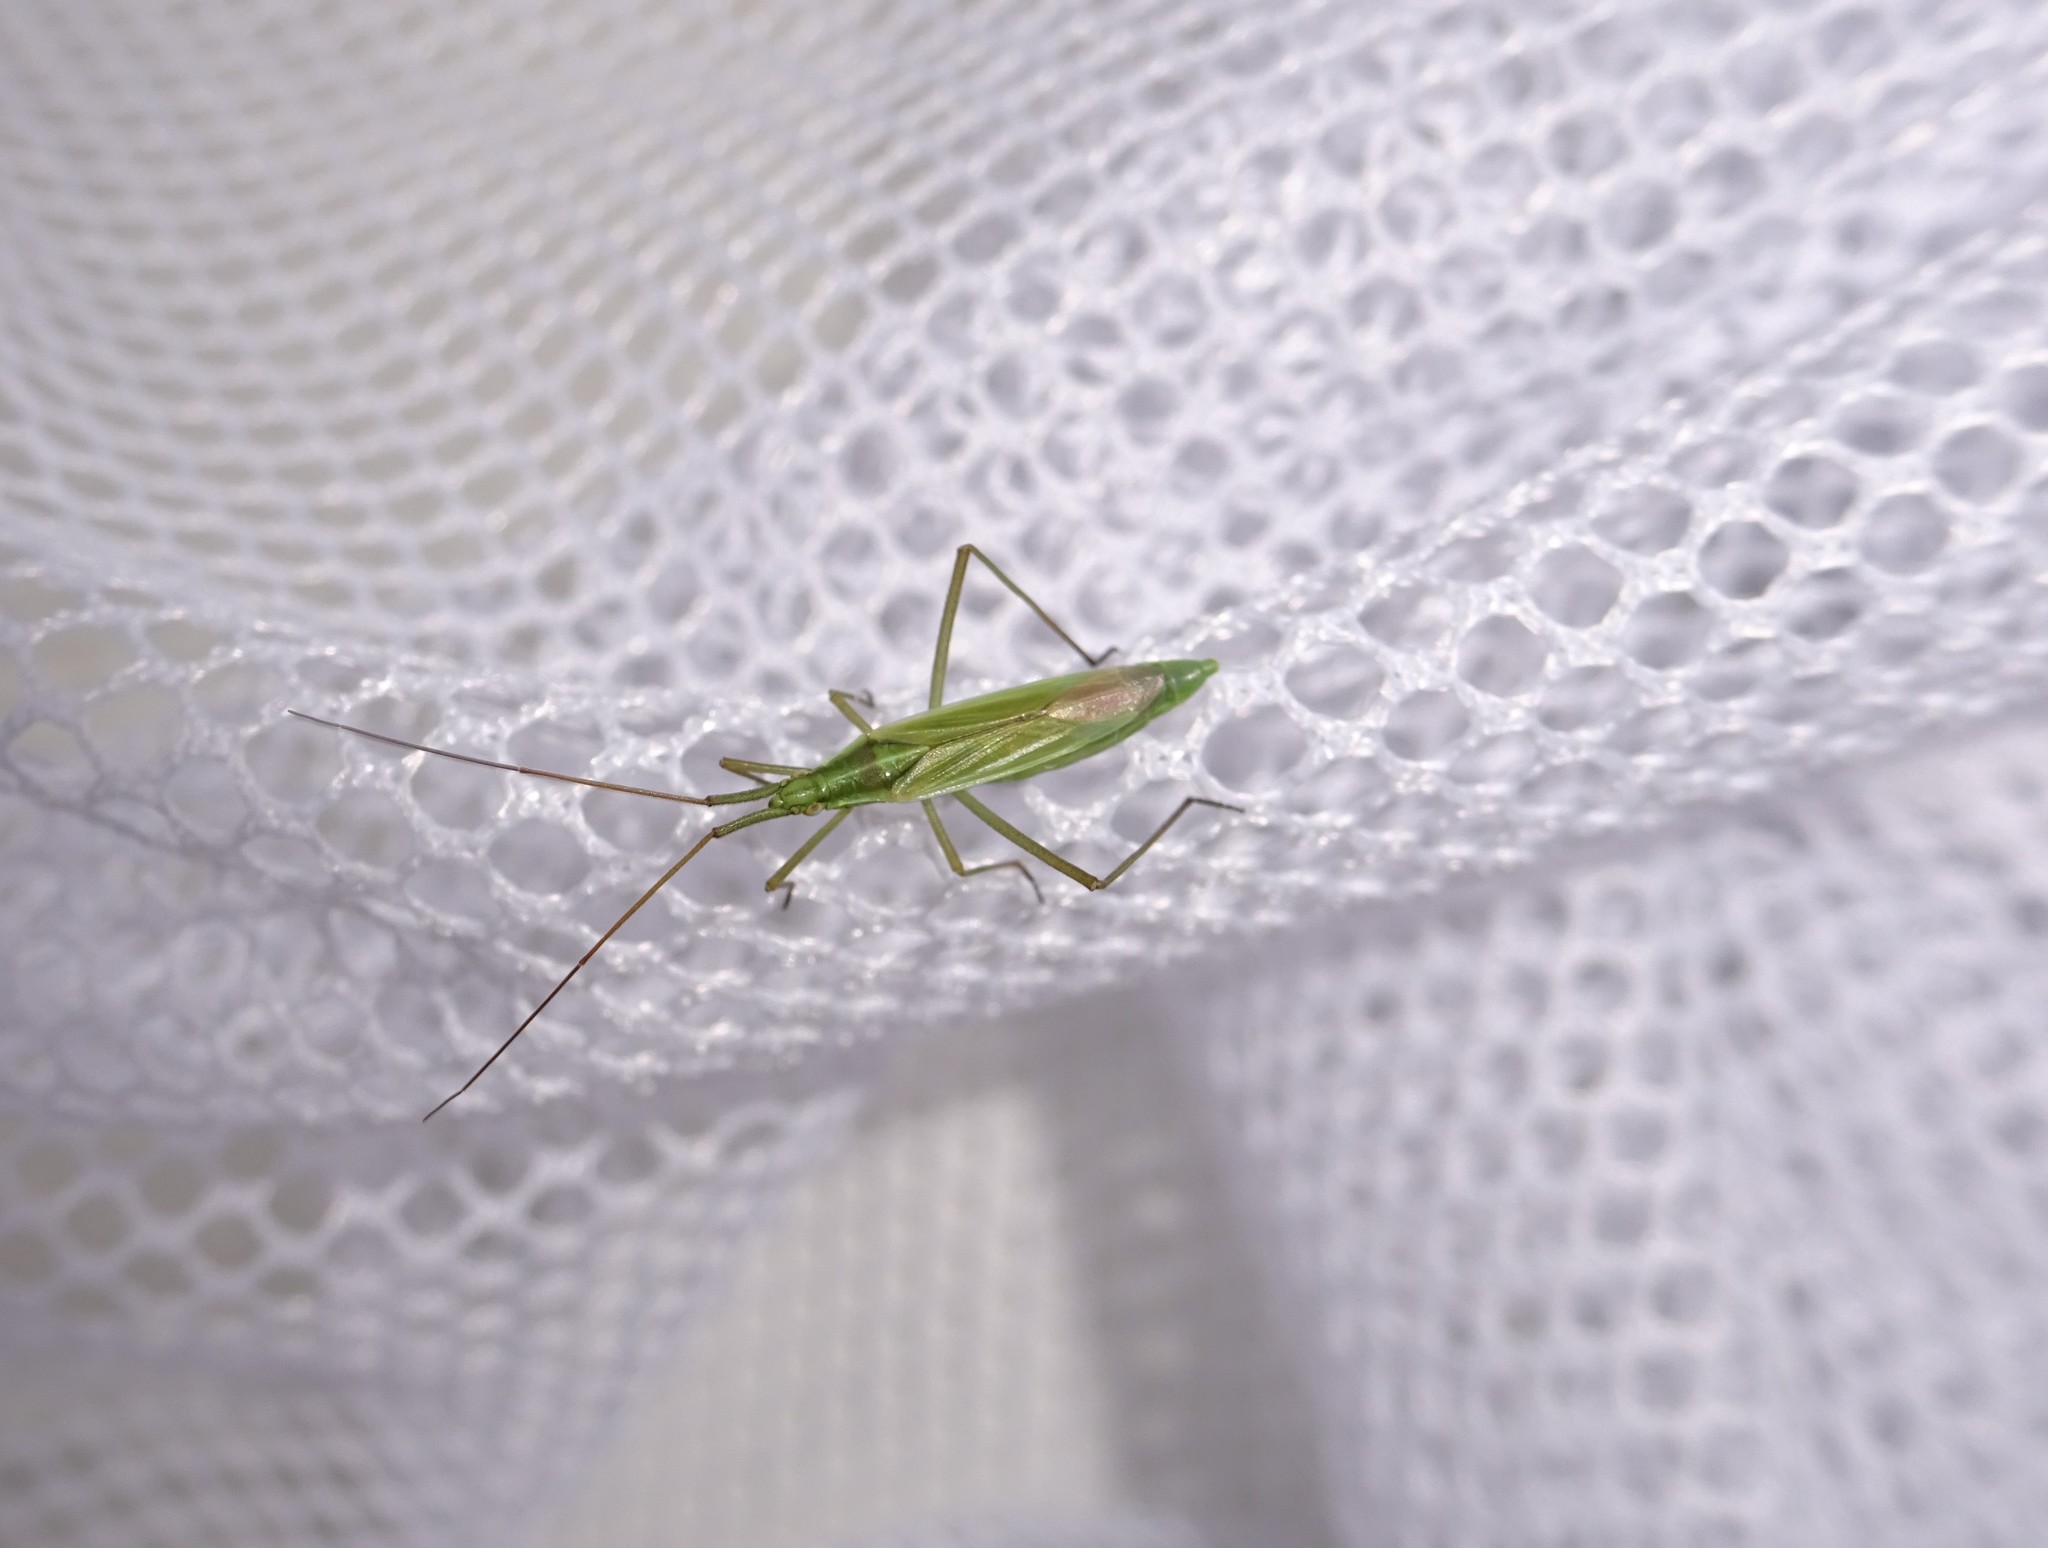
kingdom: Animalia
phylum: Arthropoda
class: Insecta
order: Hemiptera
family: Miridae
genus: Megaloceroea
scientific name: Megaloceroea recticornis
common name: Plant bug
